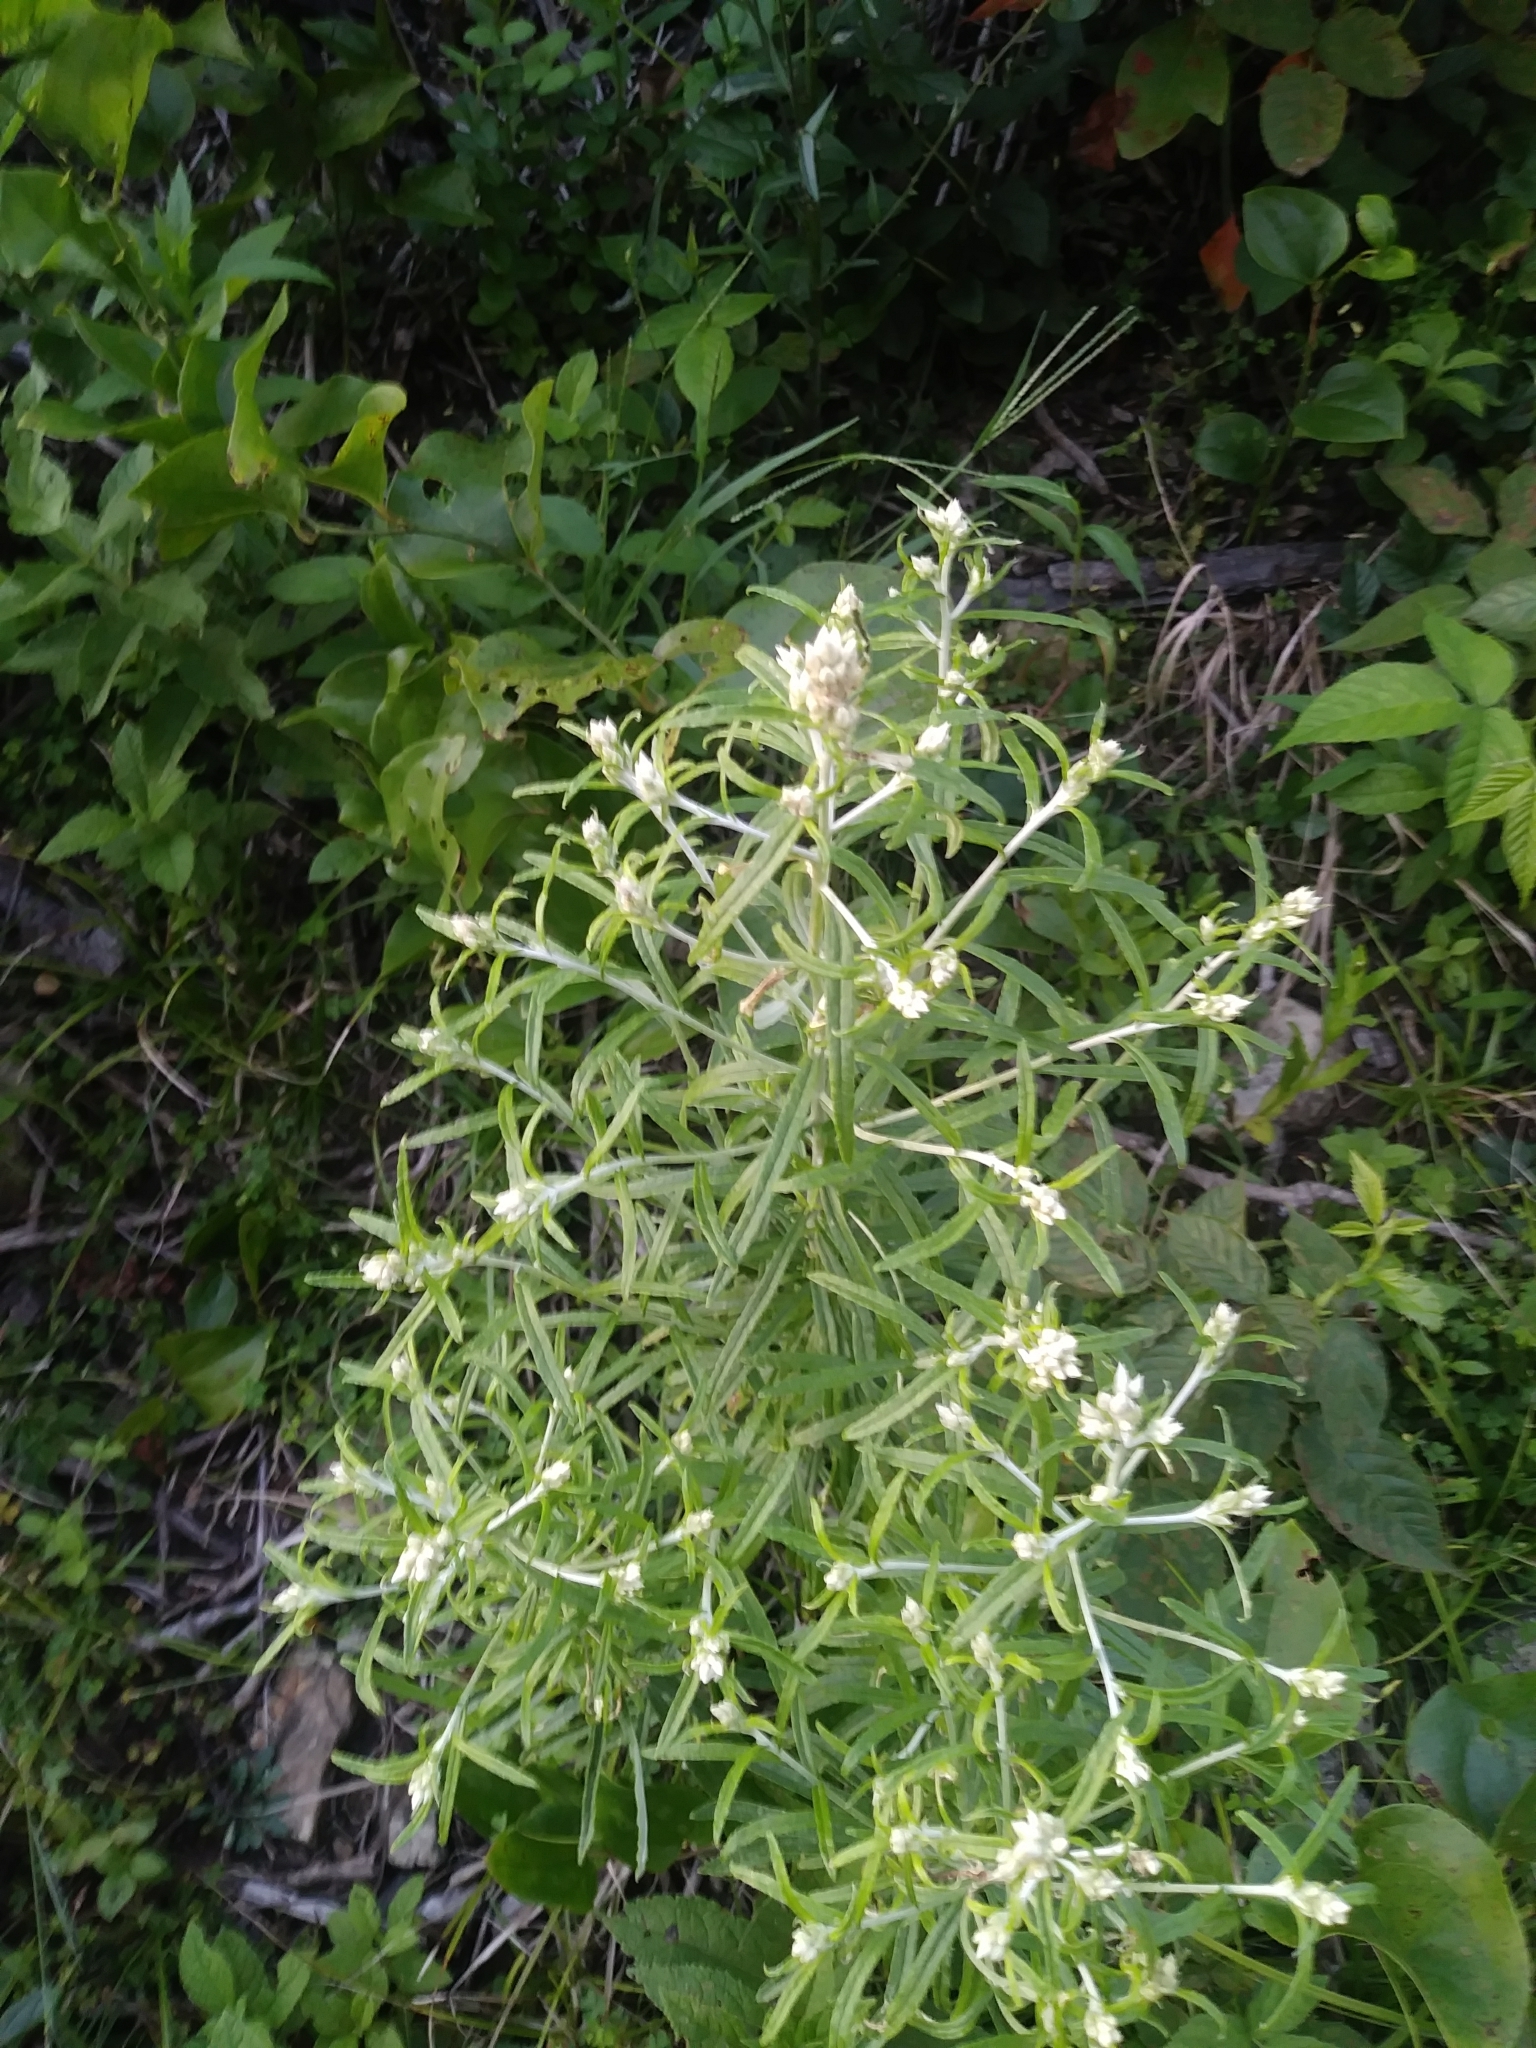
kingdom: Plantae
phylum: Tracheophyta
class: Magnoliopsida
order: Asterales
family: Asteraceae
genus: Pseudognaphalium
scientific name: Pseudognaphalium obtusifolium
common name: Eastern rabbit-tobacco
